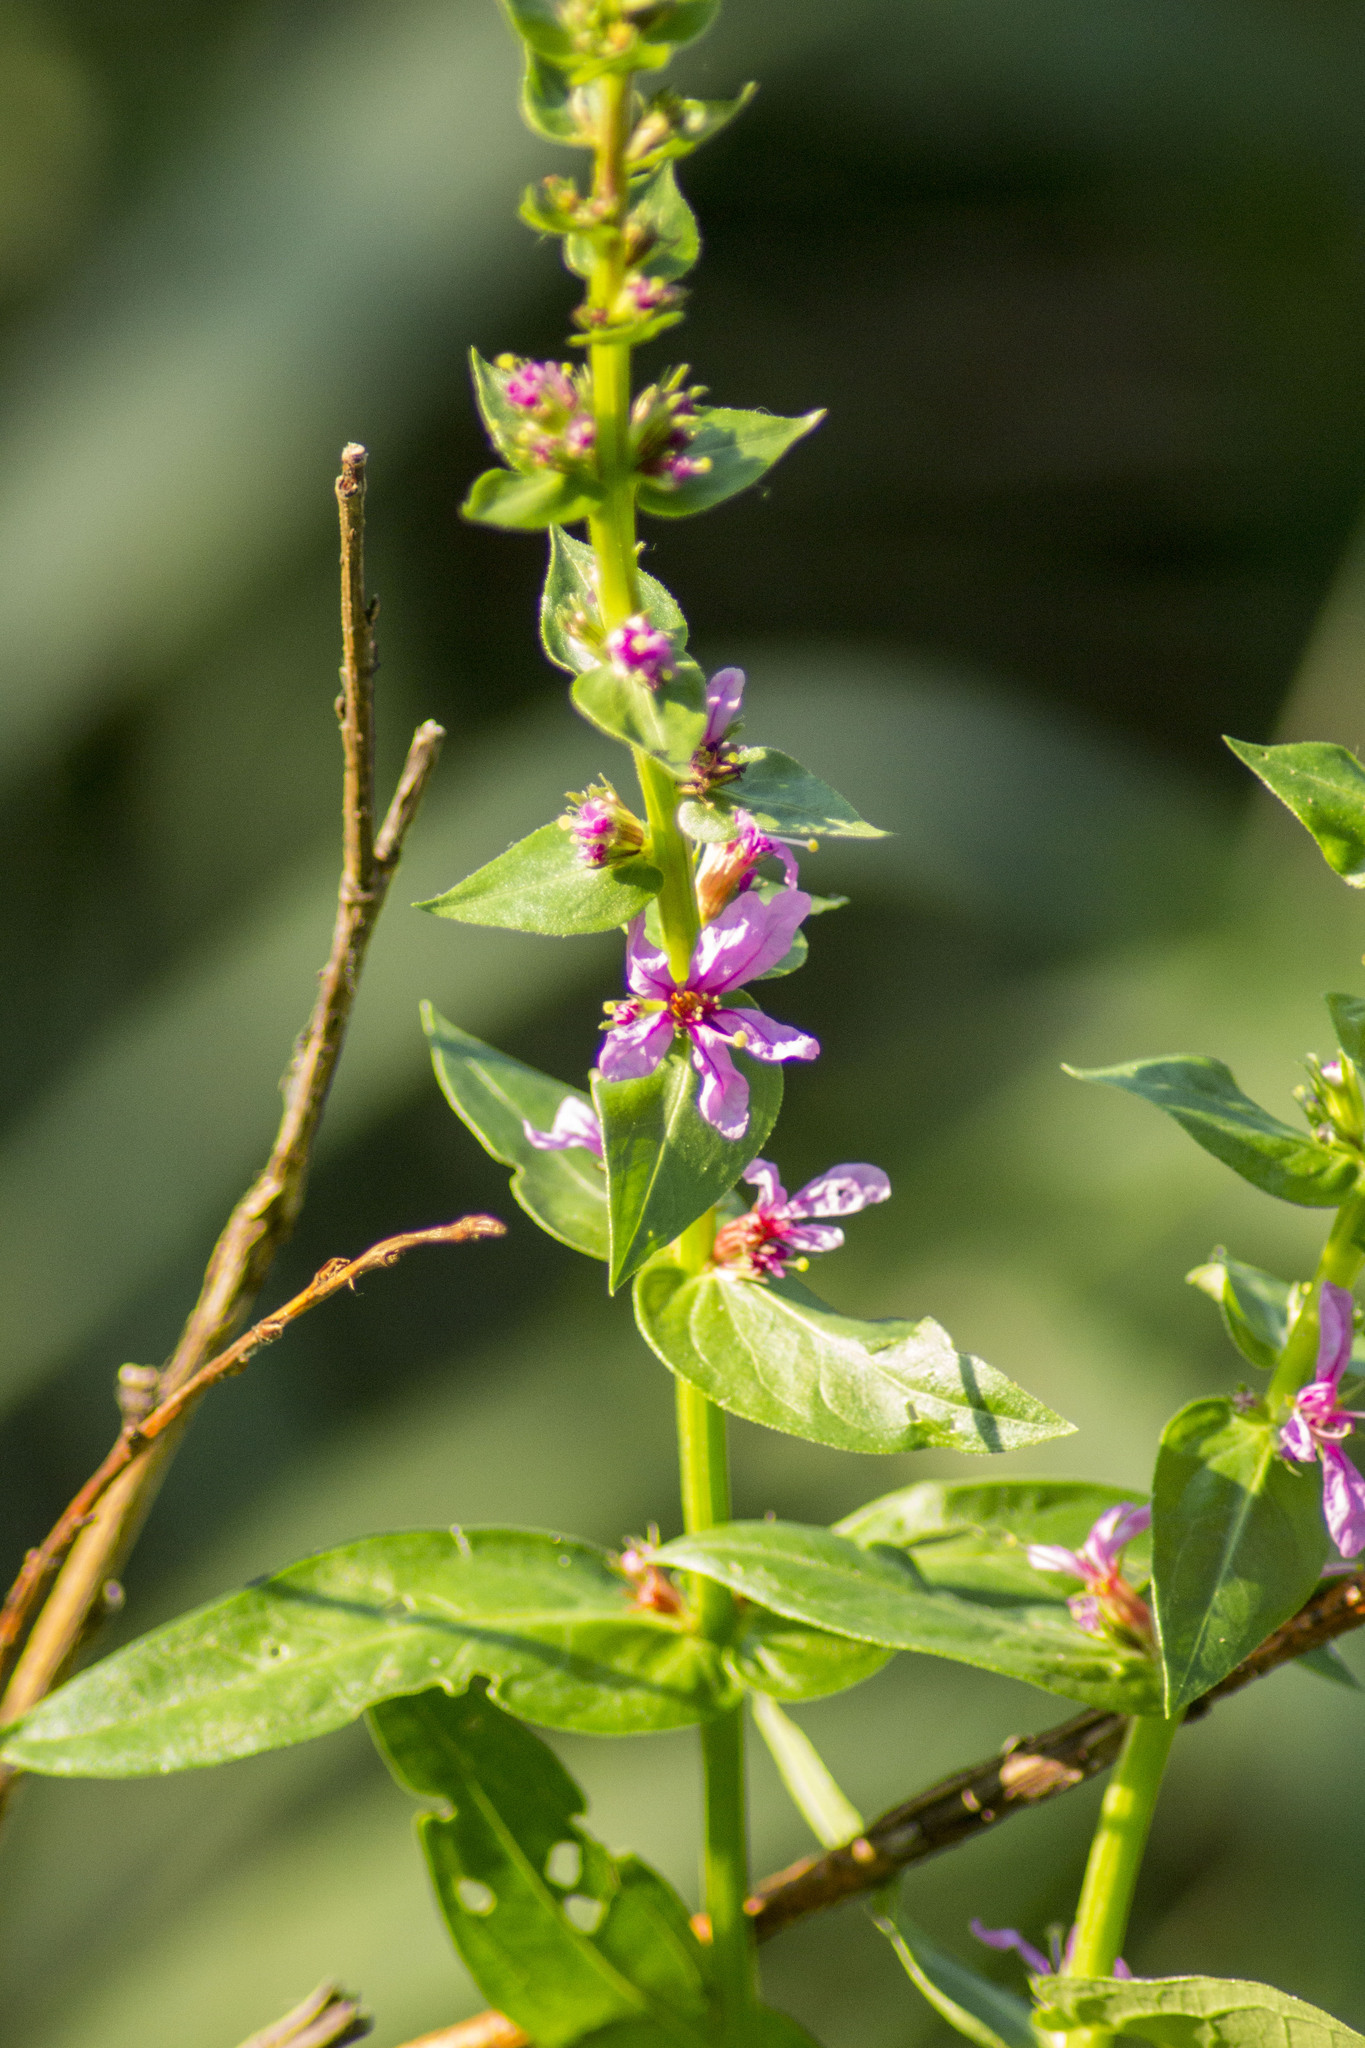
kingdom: Plantae
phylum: Tracheophyta
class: Magnoliopsida
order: Myrtales
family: Lythraceae
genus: Lythrum
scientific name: Lythrum salicaria
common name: Purple loosestrife
